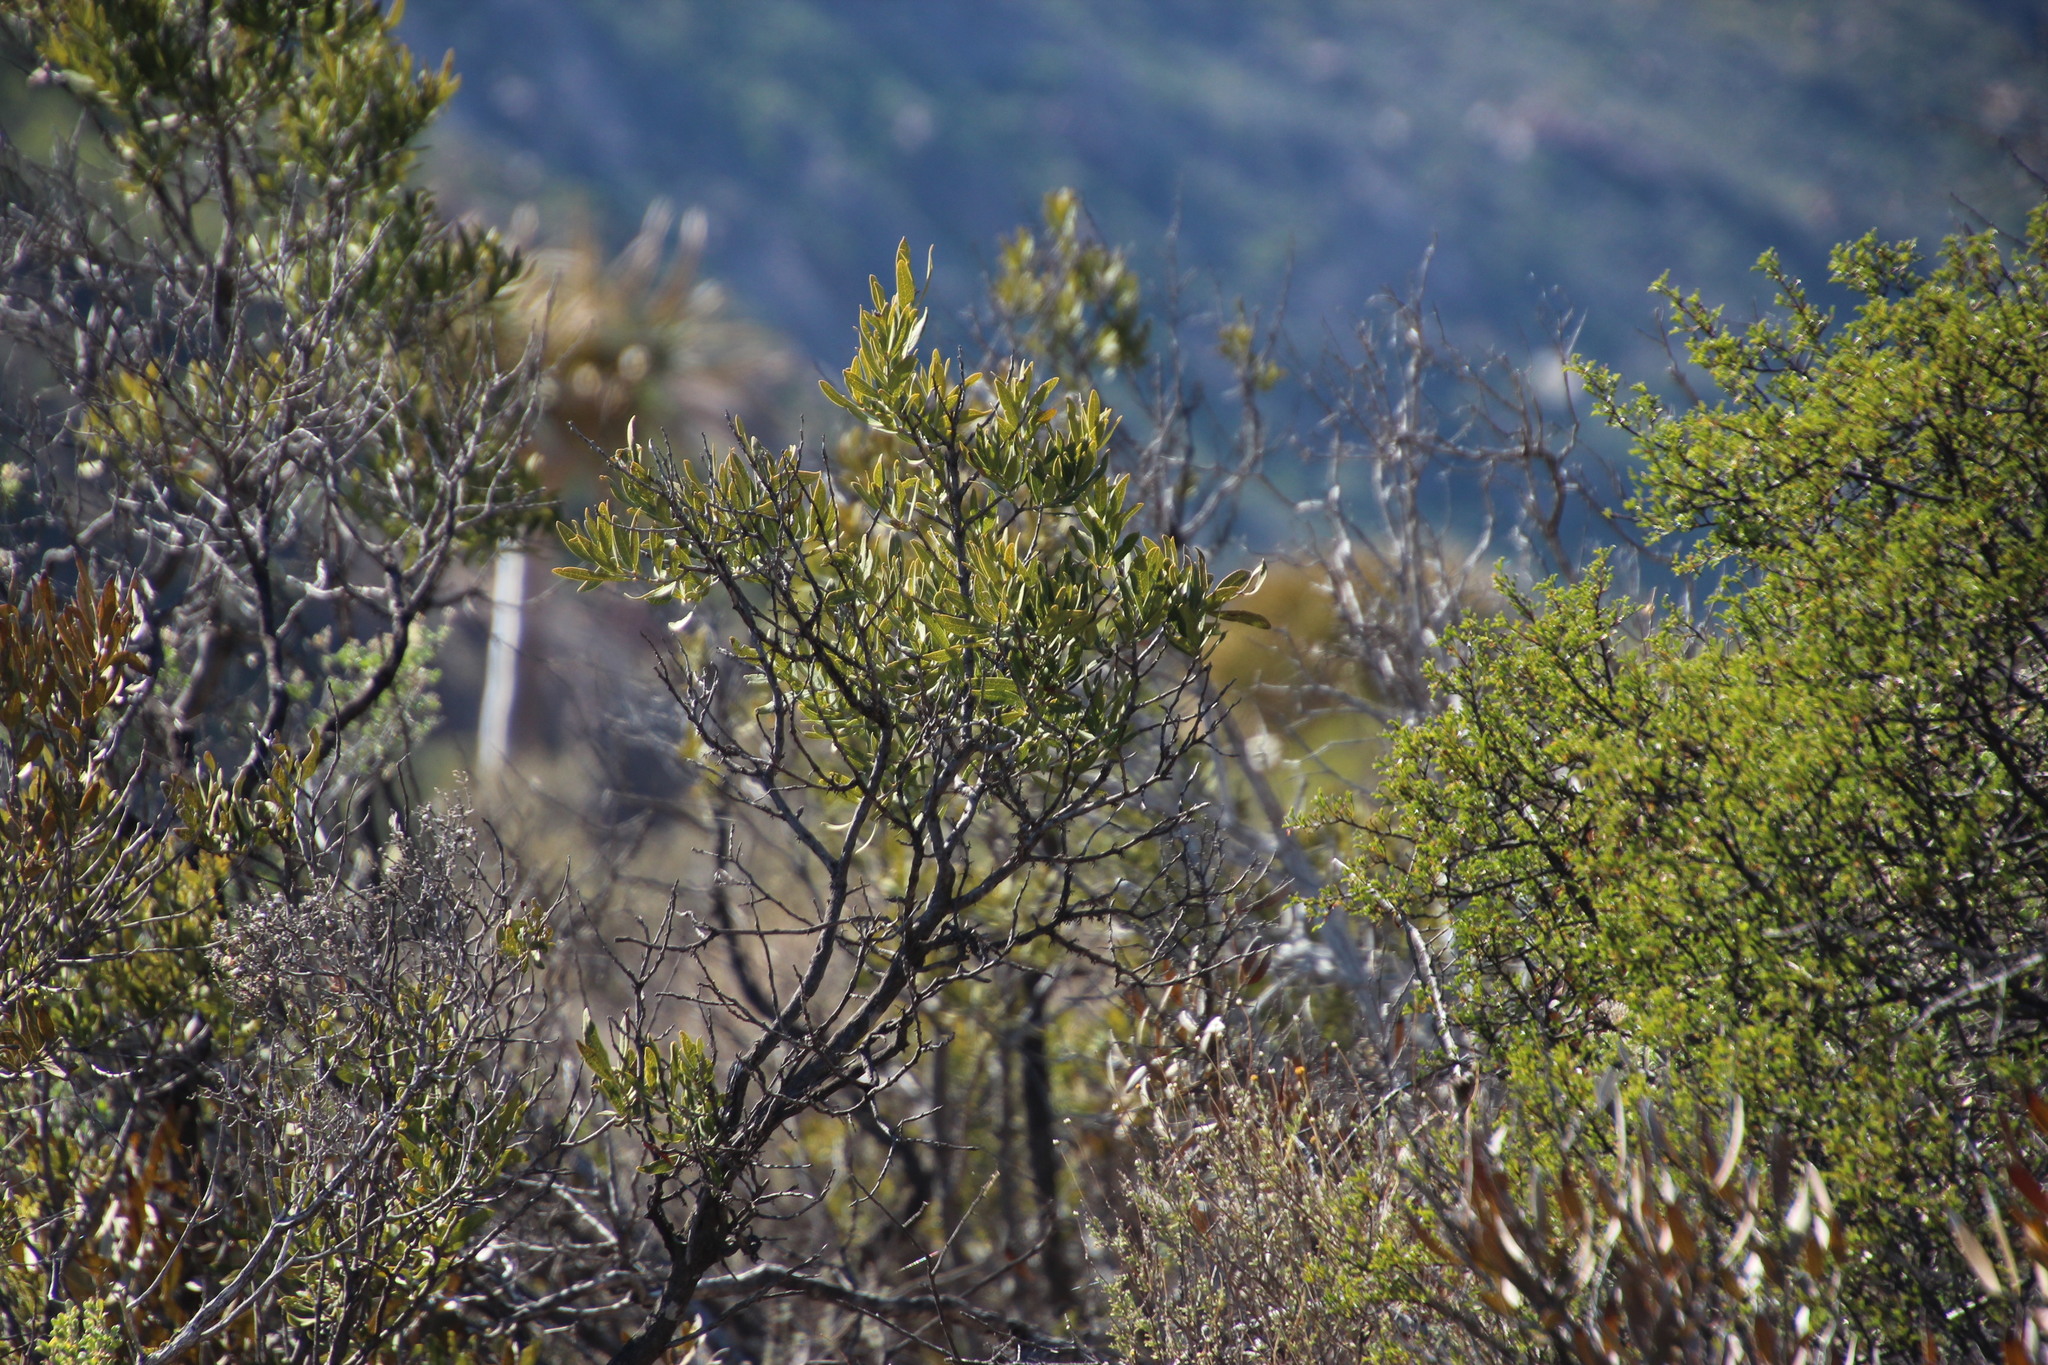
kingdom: Plantae
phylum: Tracheophyta
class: Magnoliopsida
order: Ericales
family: Ebenaceae
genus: Euclea
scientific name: Euclea acutifolia
